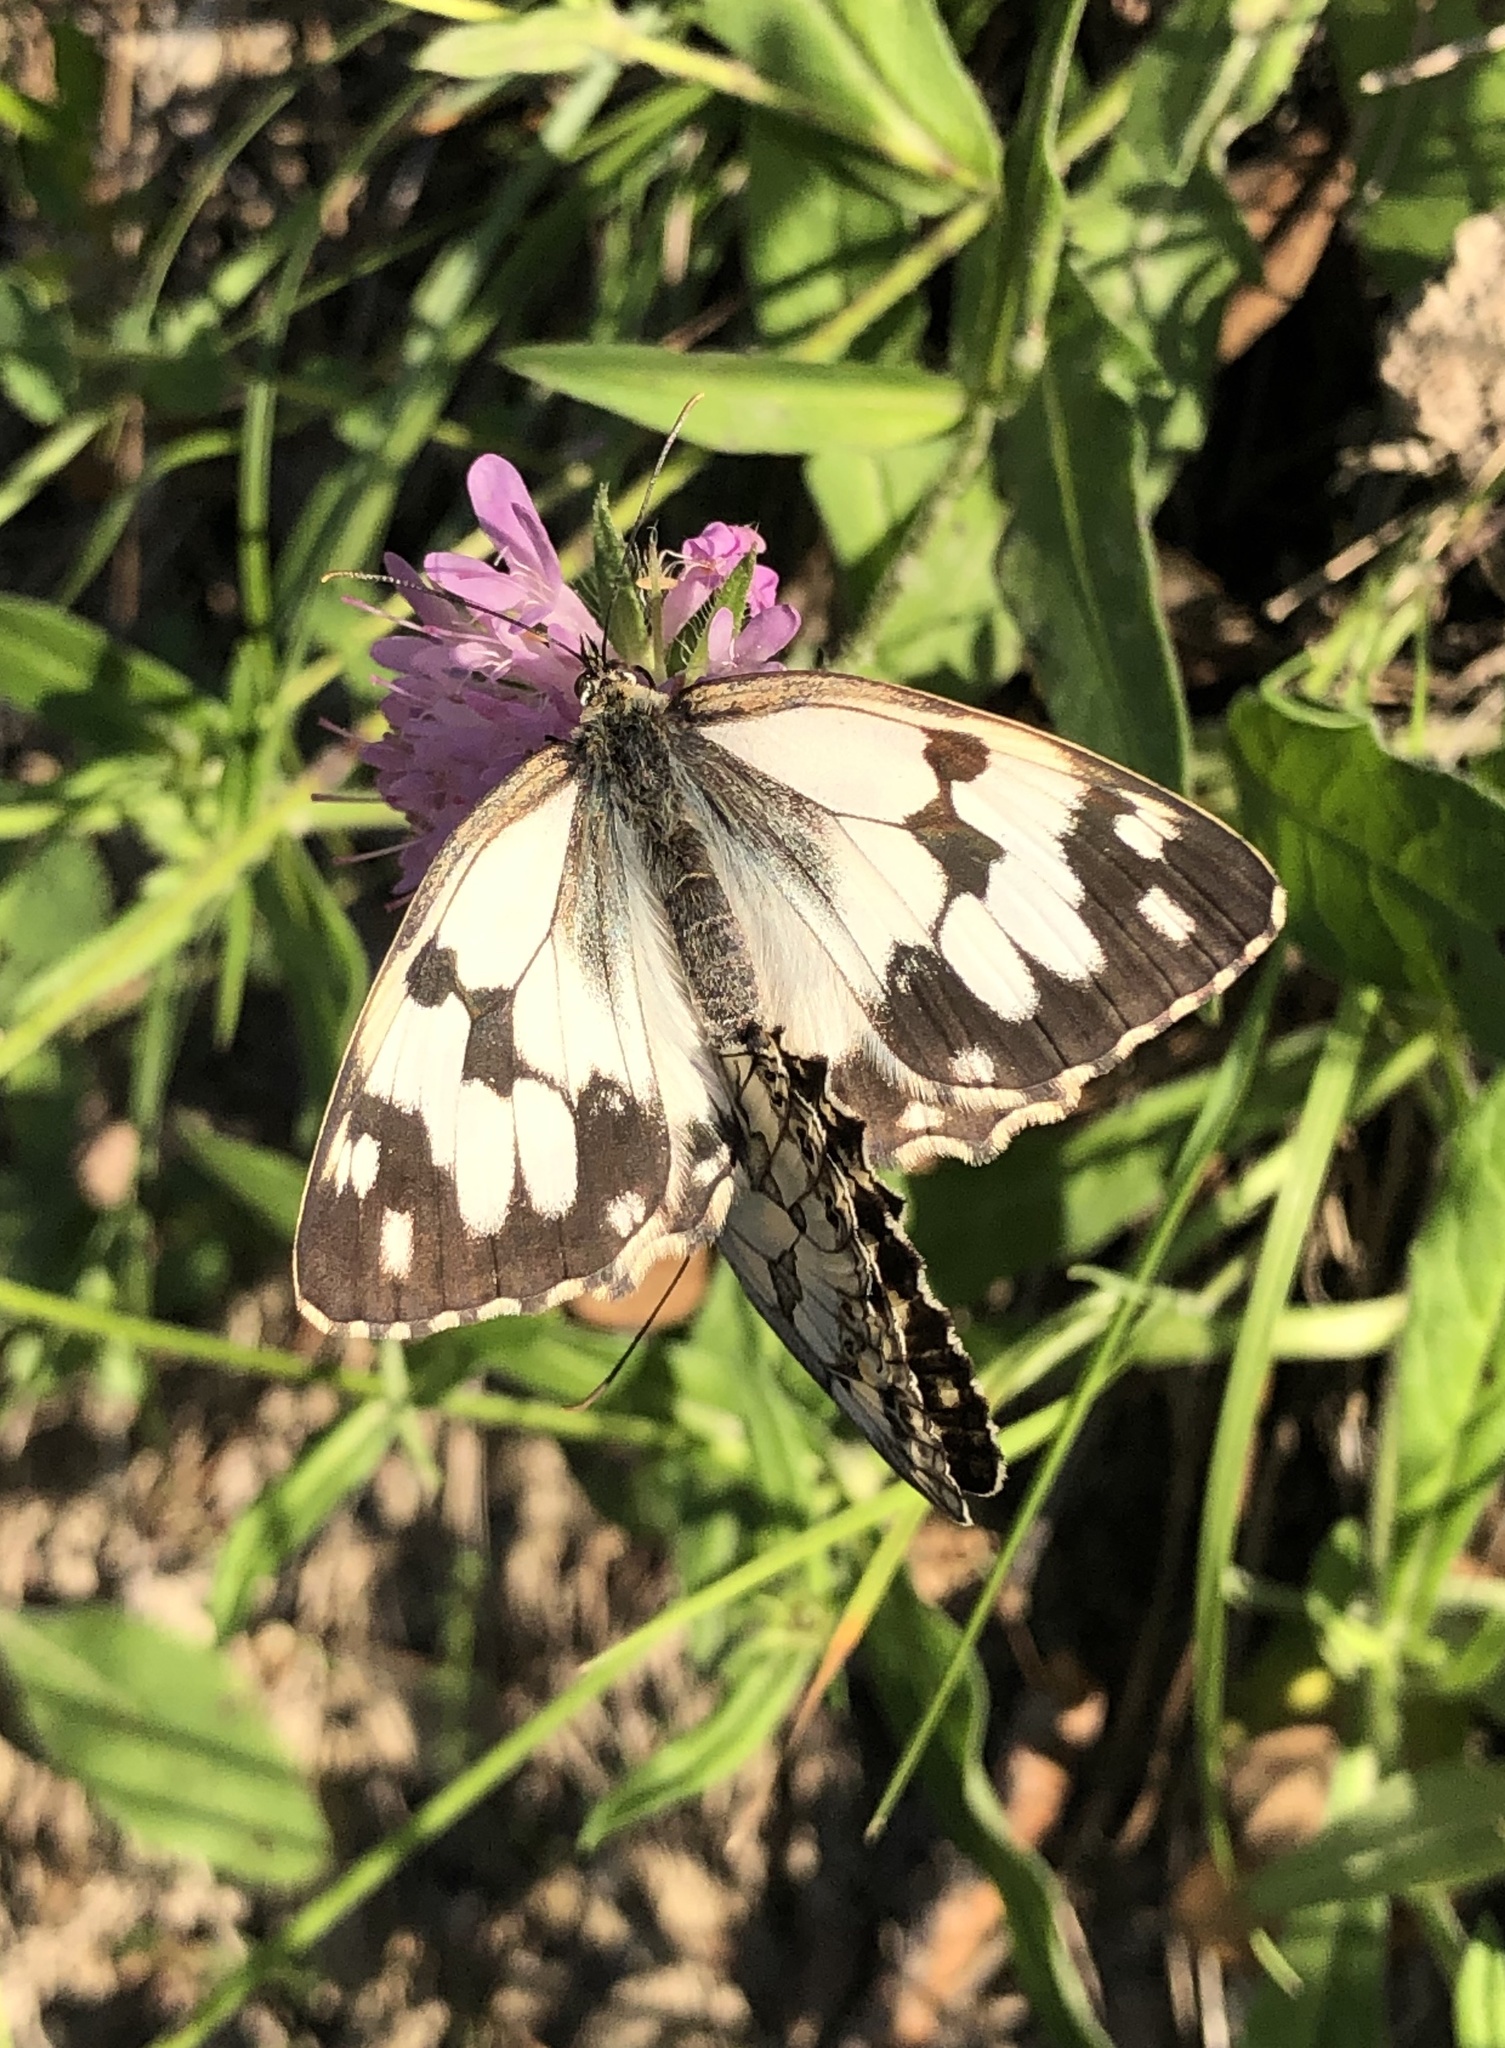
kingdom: Animalia
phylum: Arthropoda
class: Insecta
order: Lepidoptera
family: Nymphalidae
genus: Melanargia
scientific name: Melanargia lachesis
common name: Iberian marbled white
